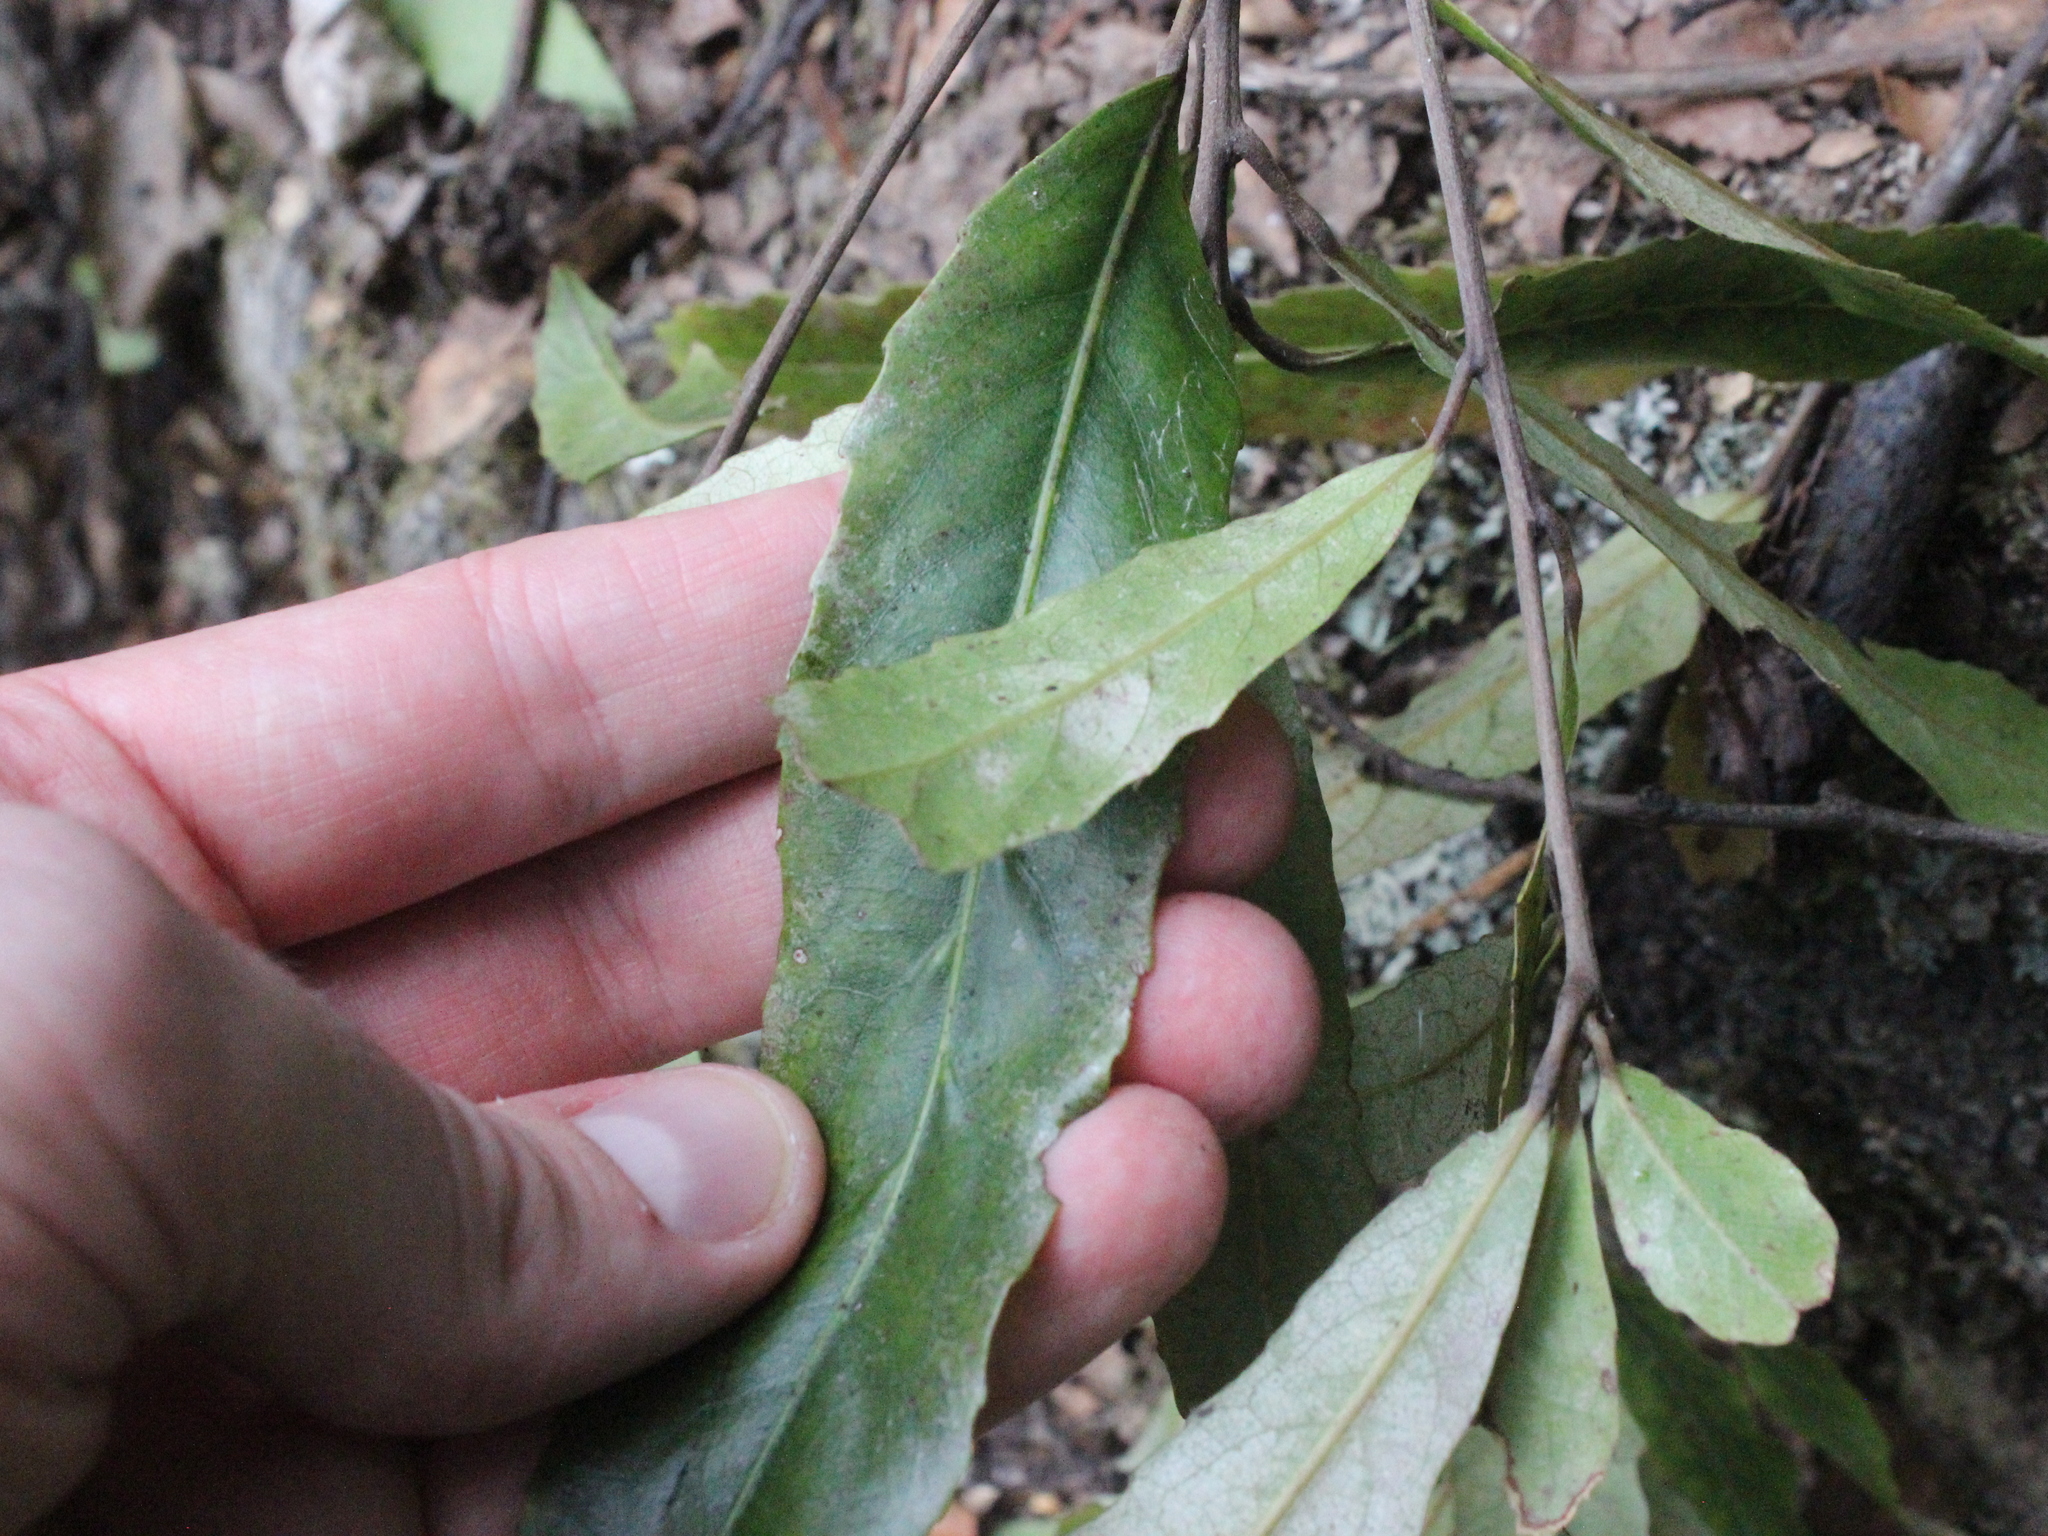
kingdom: Plantae
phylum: Tracheophyta
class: Magnoliopsida
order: Oxalidales
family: Elaeocarpaceae
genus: Elaeocarpus
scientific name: Elaeocarpus dentatus
